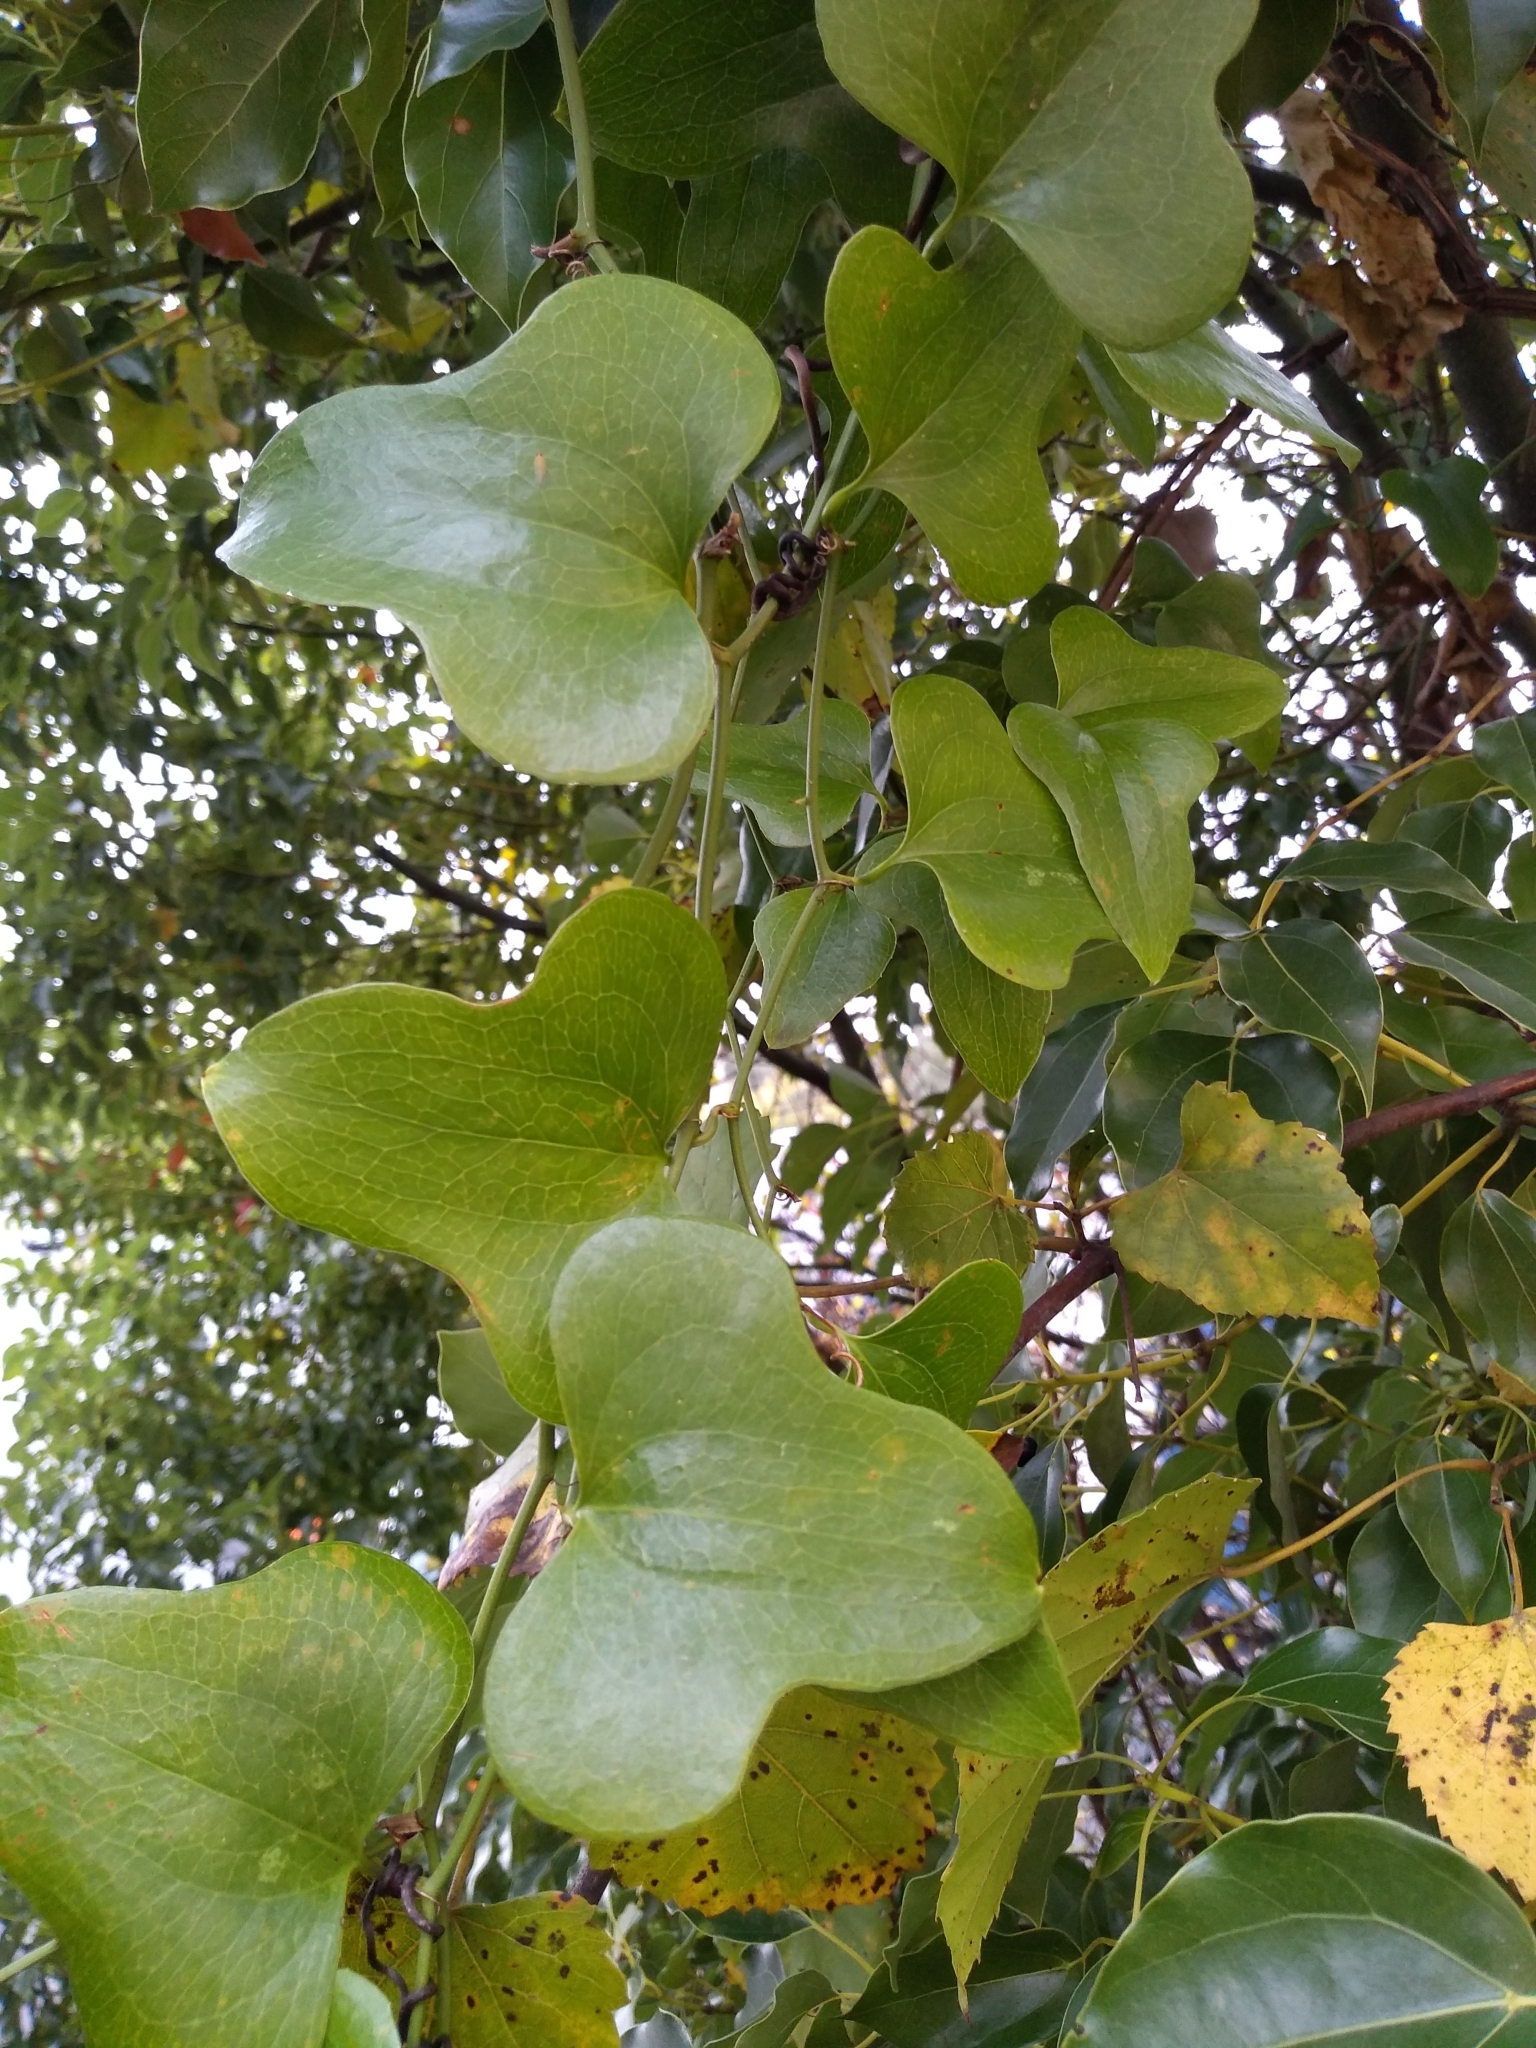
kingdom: Plantae
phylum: Tracheophyta
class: Liliopsida
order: Liliales
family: Smilacaceae
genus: Smilax
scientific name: Smilax bona-nox
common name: Catbrier
